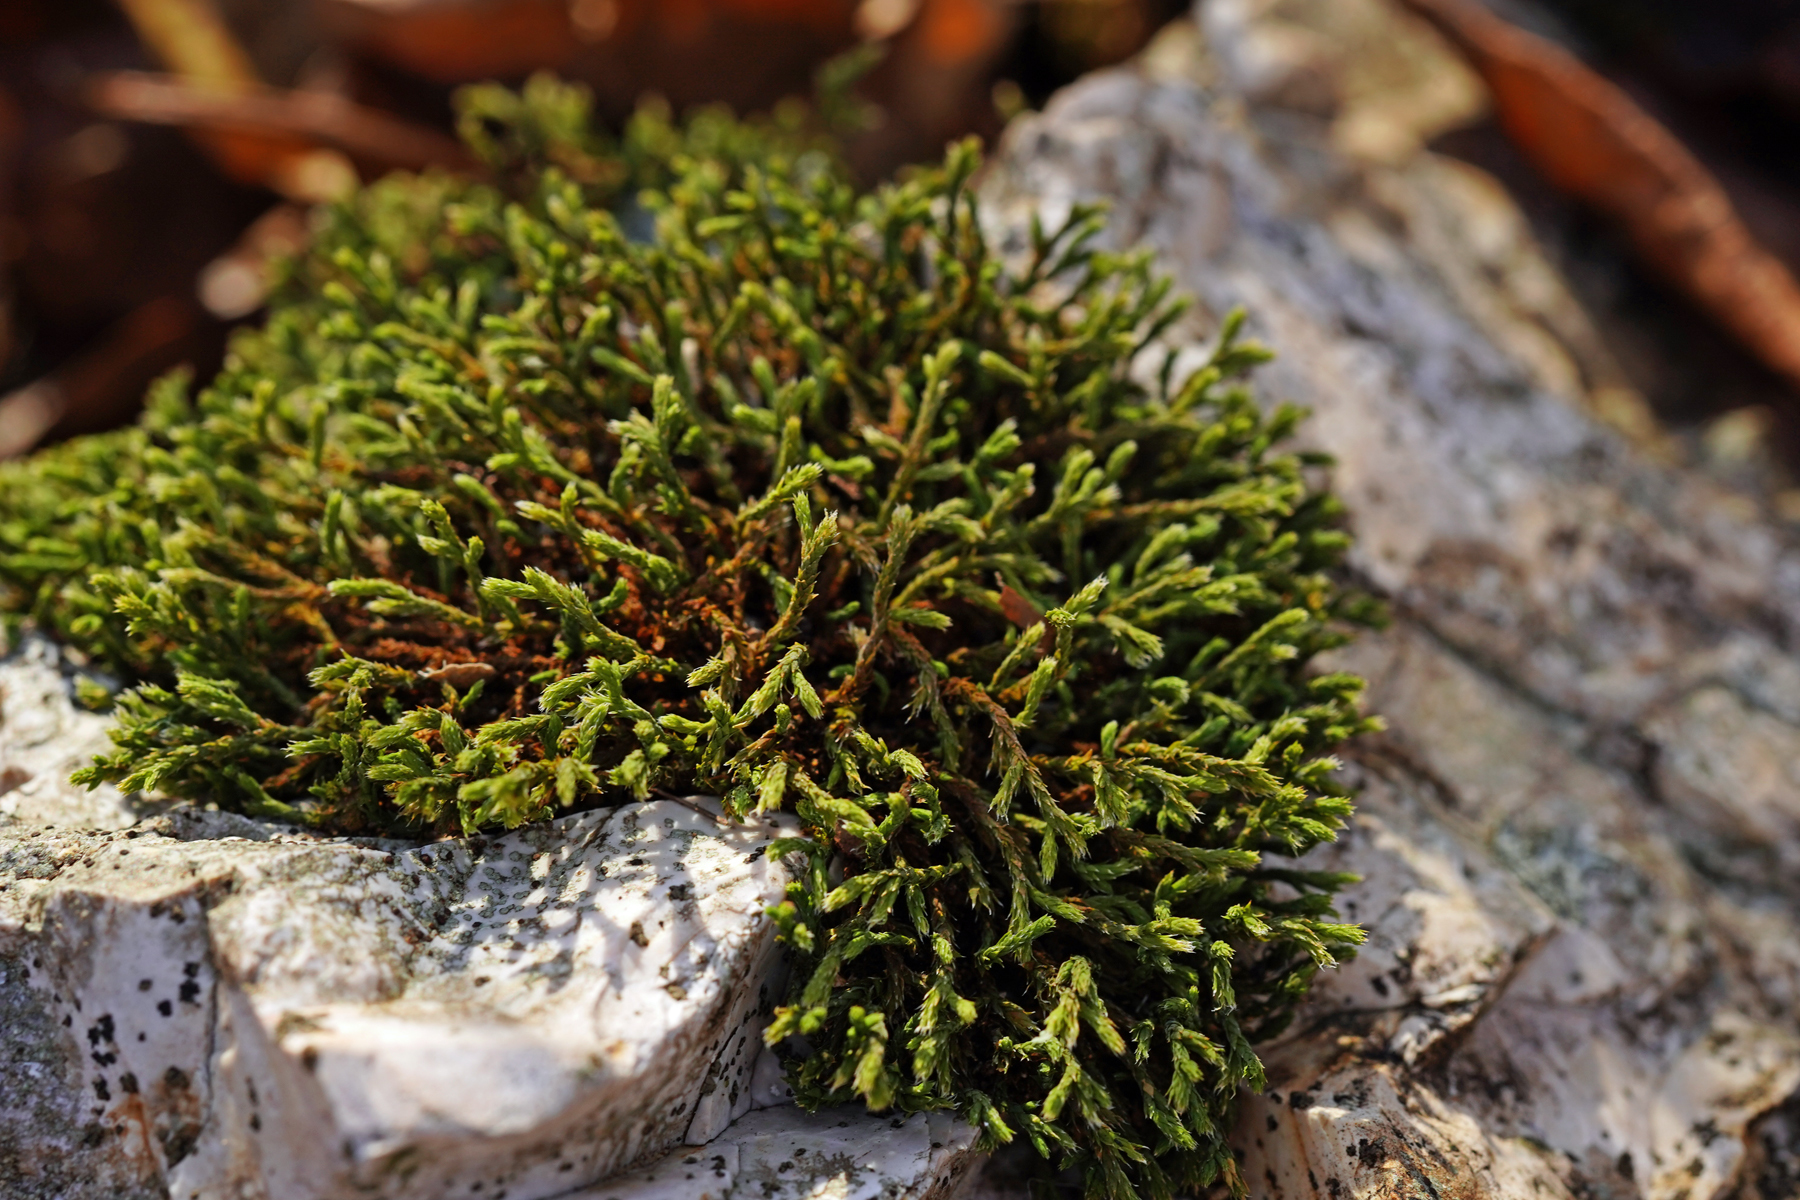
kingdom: Plantae
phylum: Bryophyta
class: Bryopsida
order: Hedwigiales
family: Hedwigiaceae
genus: Hedwigia
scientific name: Hedwigia ciliata
